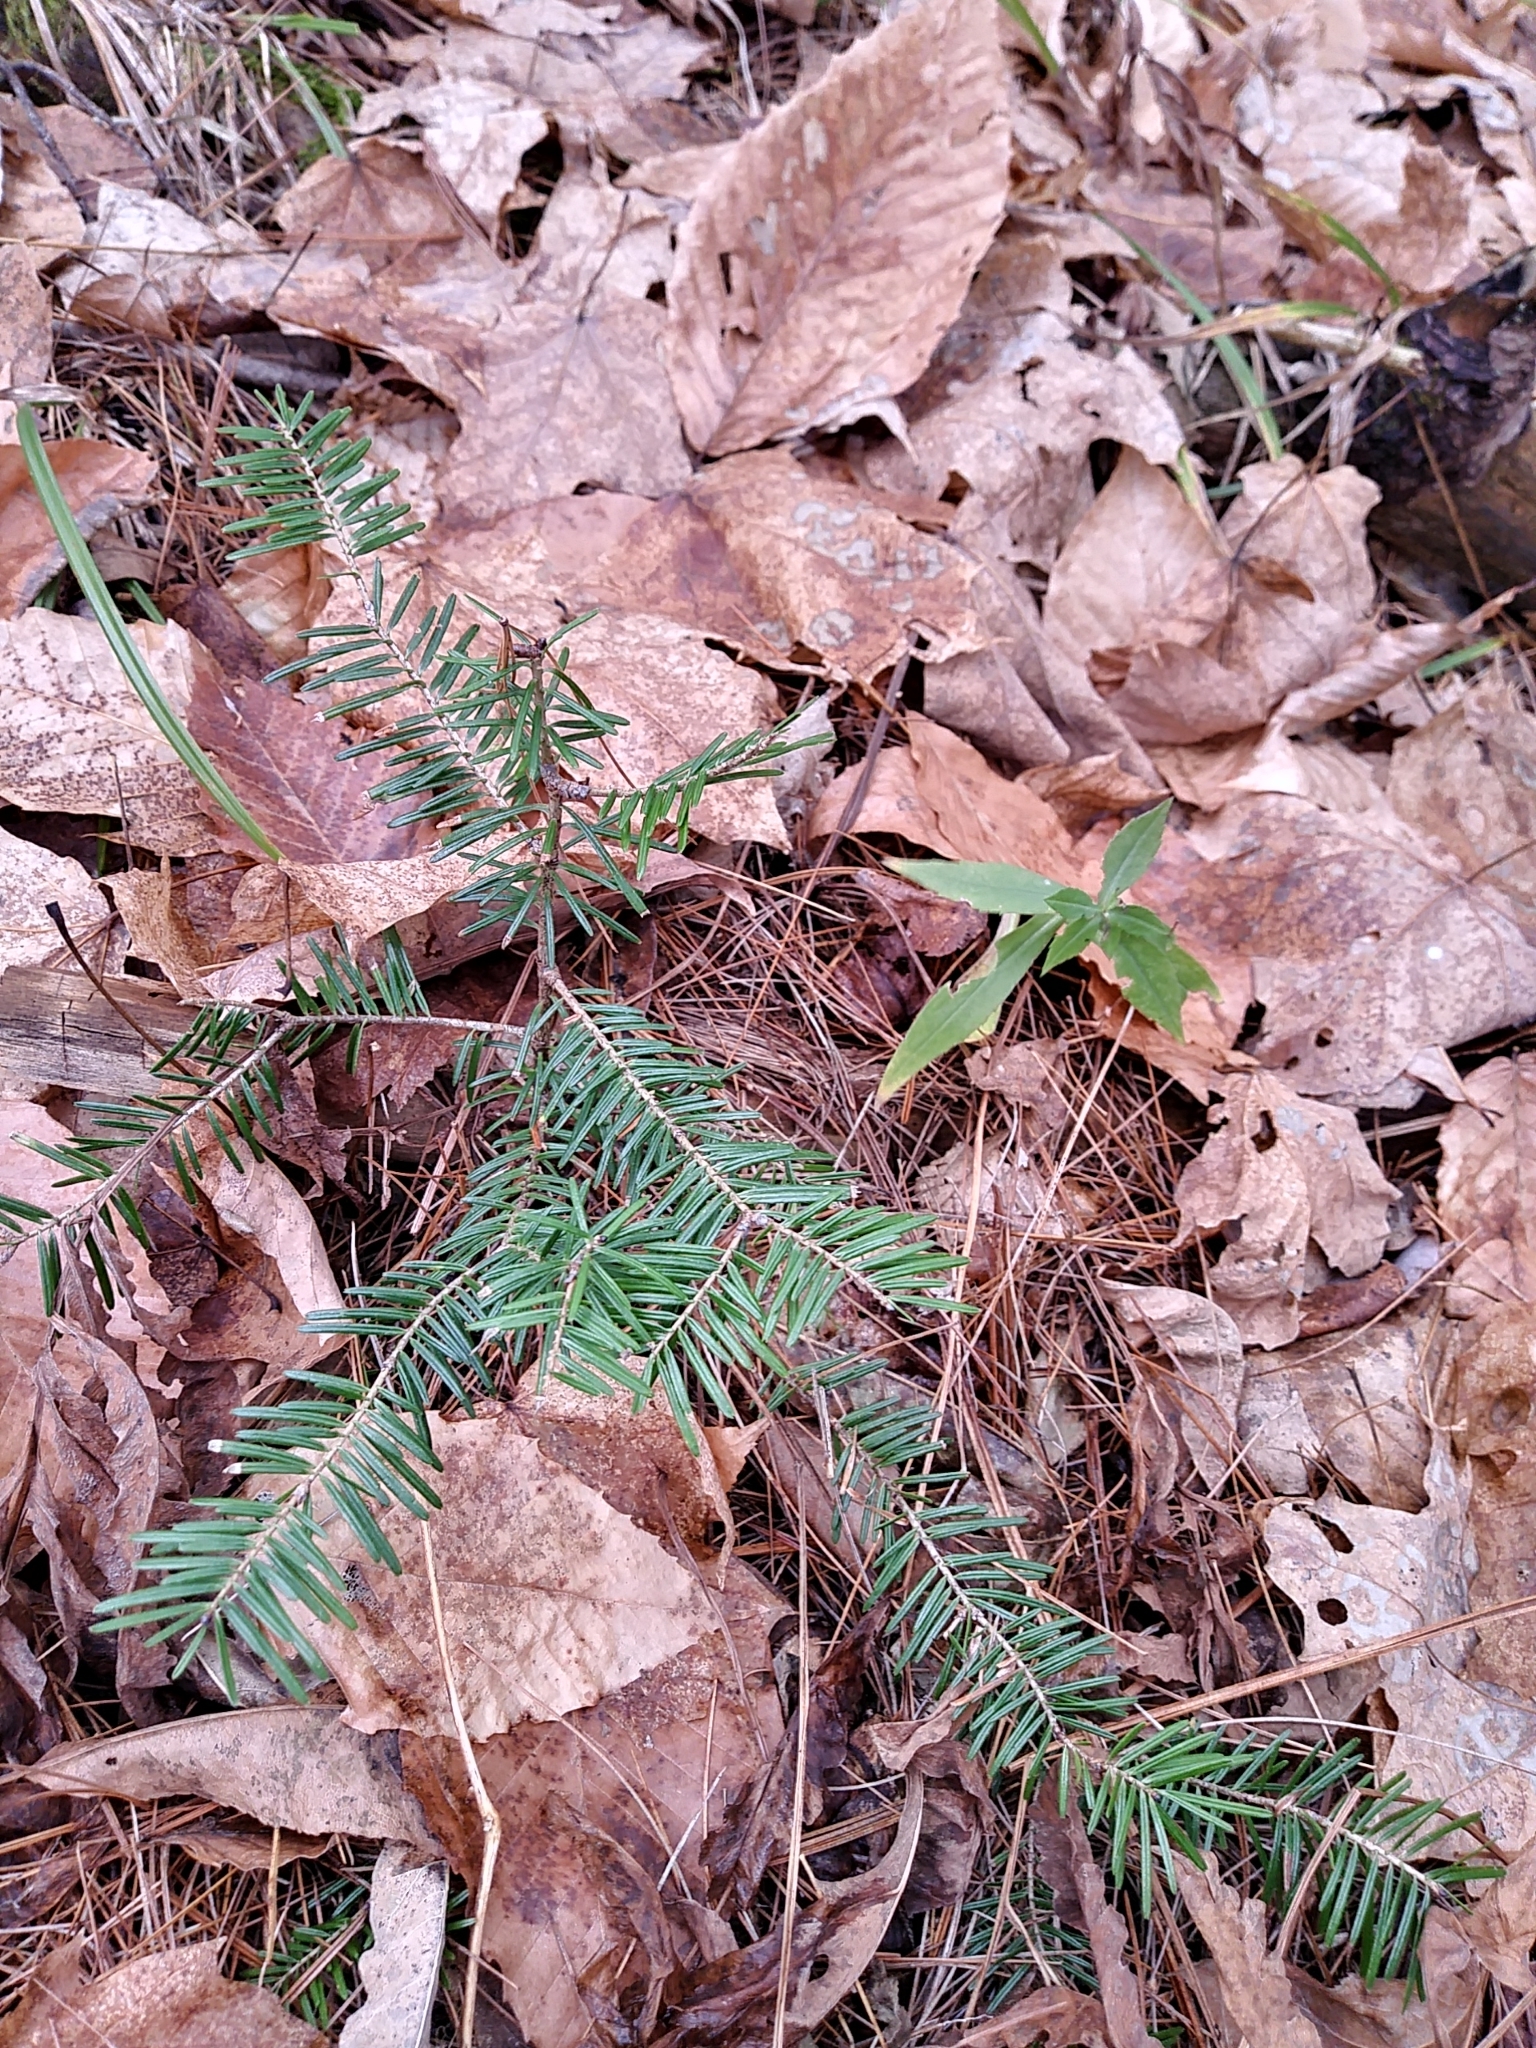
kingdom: Plantae
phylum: Tracheophyta
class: Pinopsida
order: Pinales
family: Pinaceae
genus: Abies
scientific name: Abies balsamea
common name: Balsam fir
